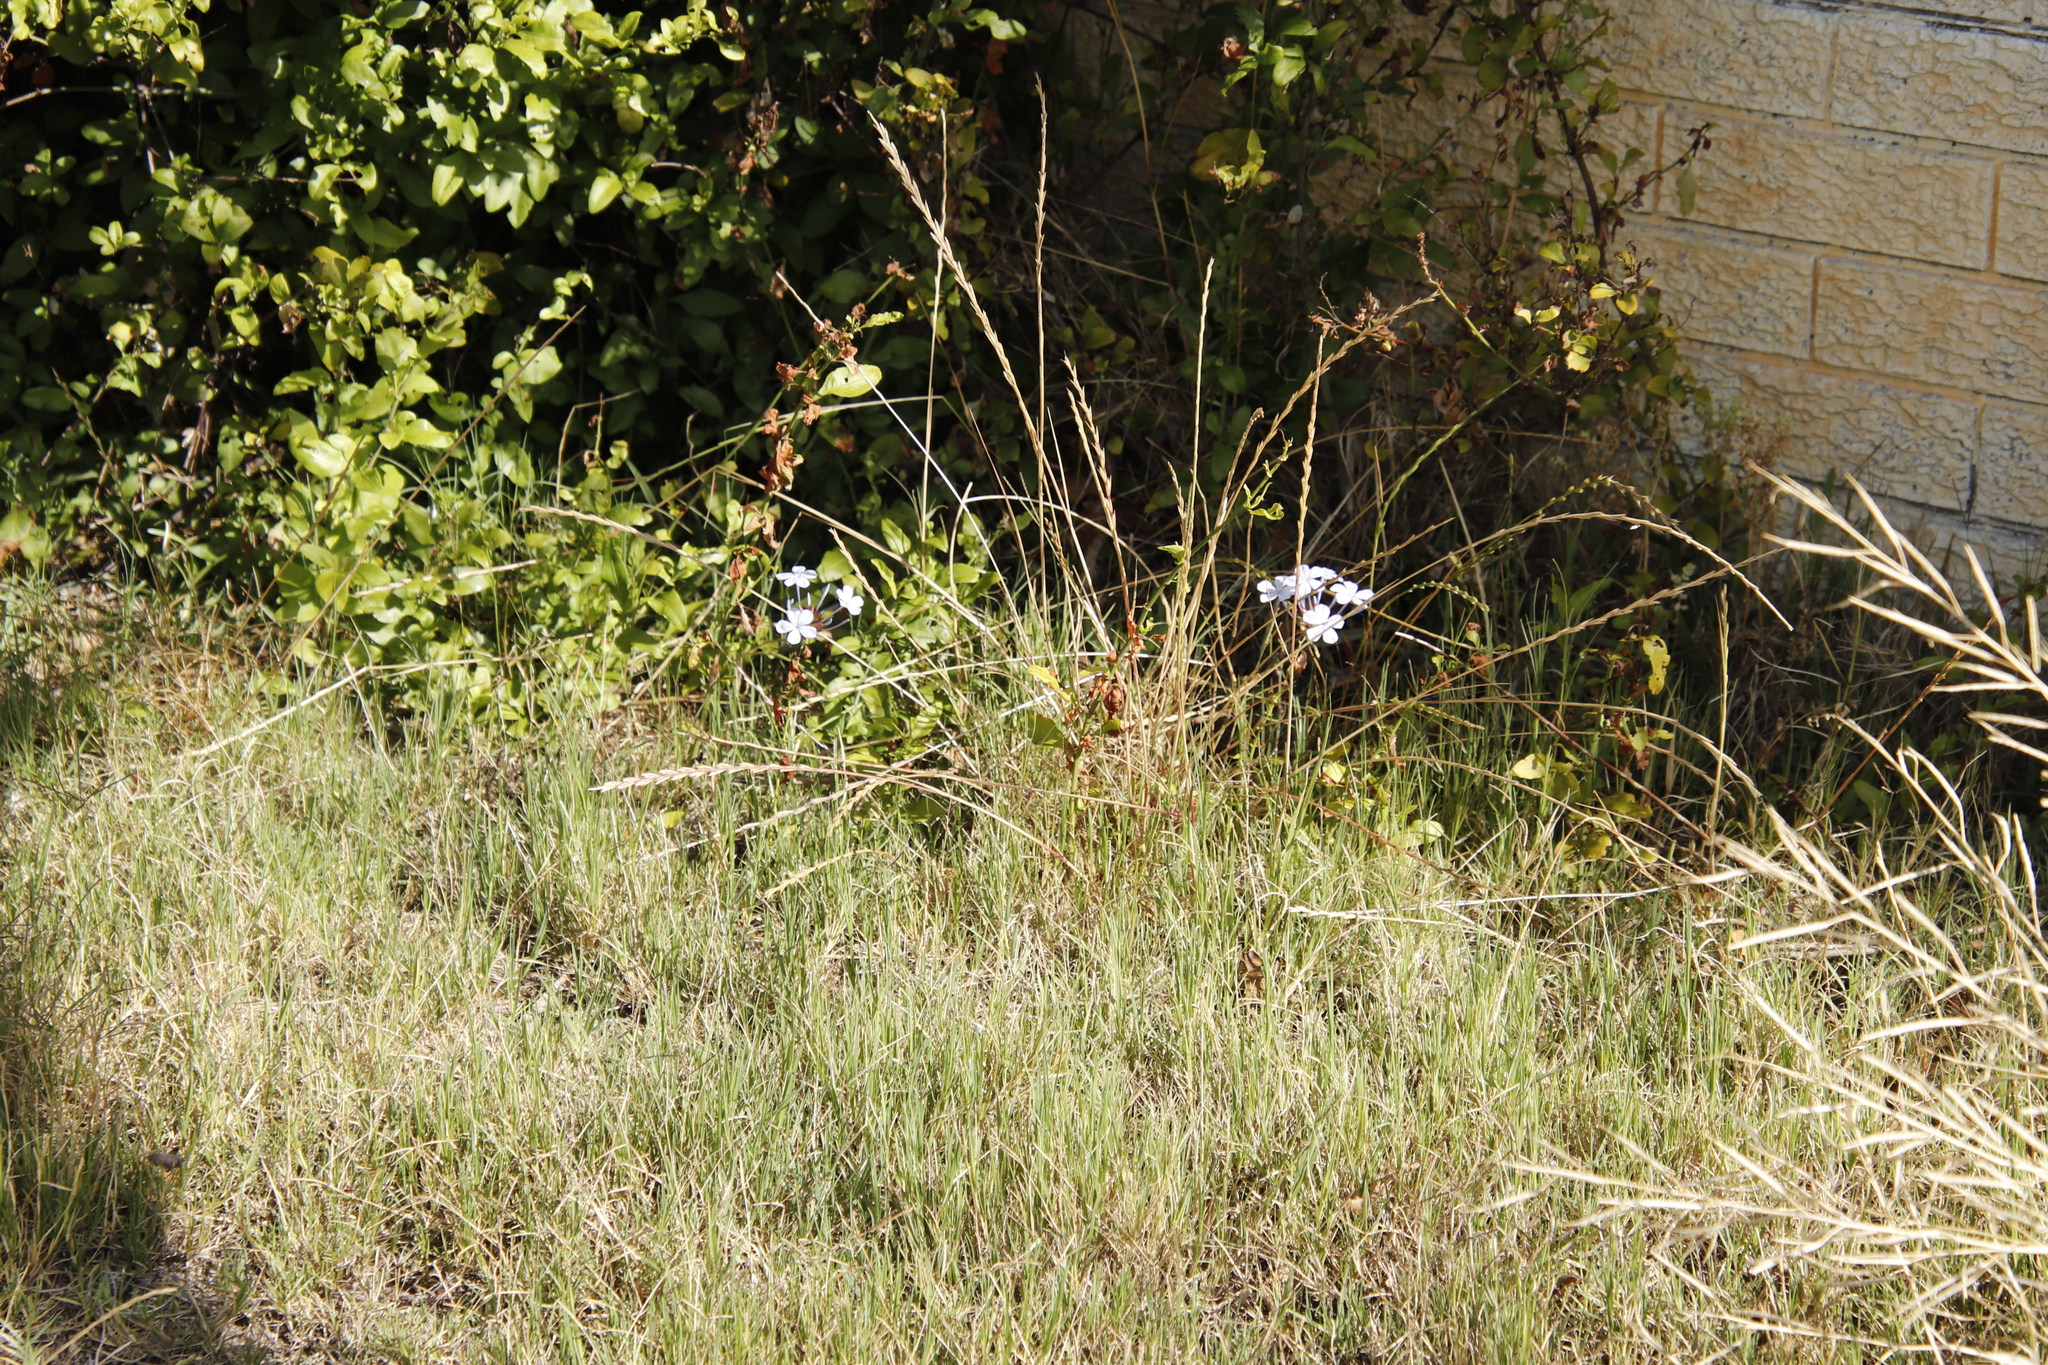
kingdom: Plantae
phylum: Tracheophyta
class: Magnoliopsida
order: Caryophyllales
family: Plumbaginaceae
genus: Plumbago
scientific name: Plumbago auriculata
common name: Cape leadwort
